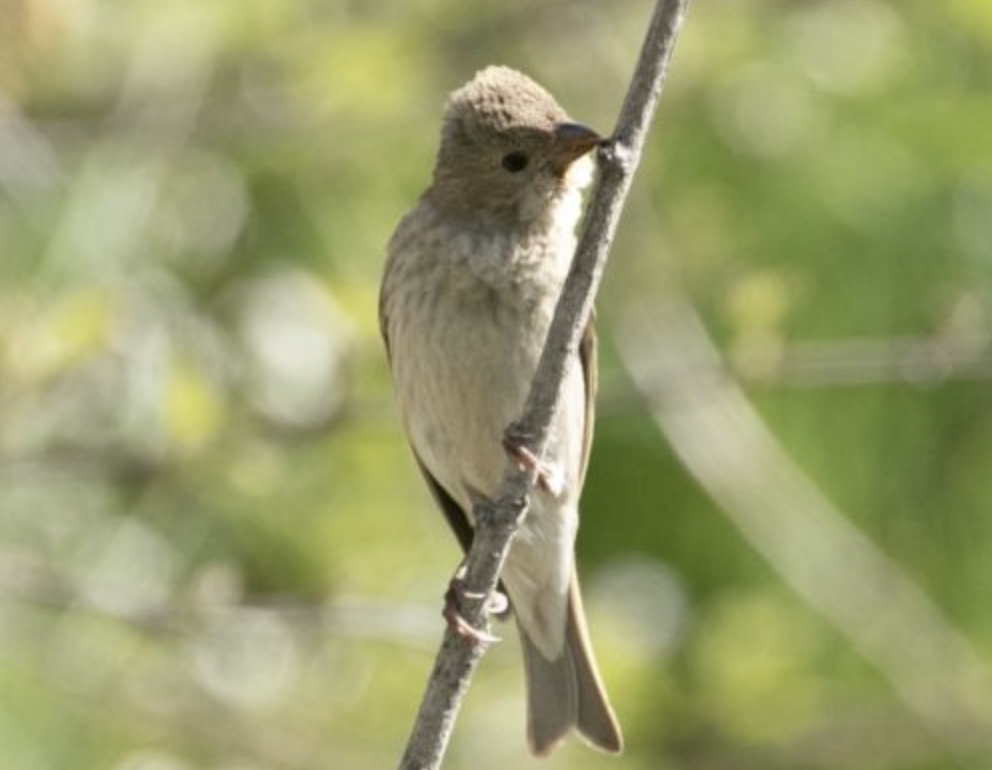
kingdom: Animalia
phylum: Chordata
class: Aves
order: Passeriformes
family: Fringillidae
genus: Carpodacus
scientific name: Carpodacus erythrinus
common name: Common rosefinch
